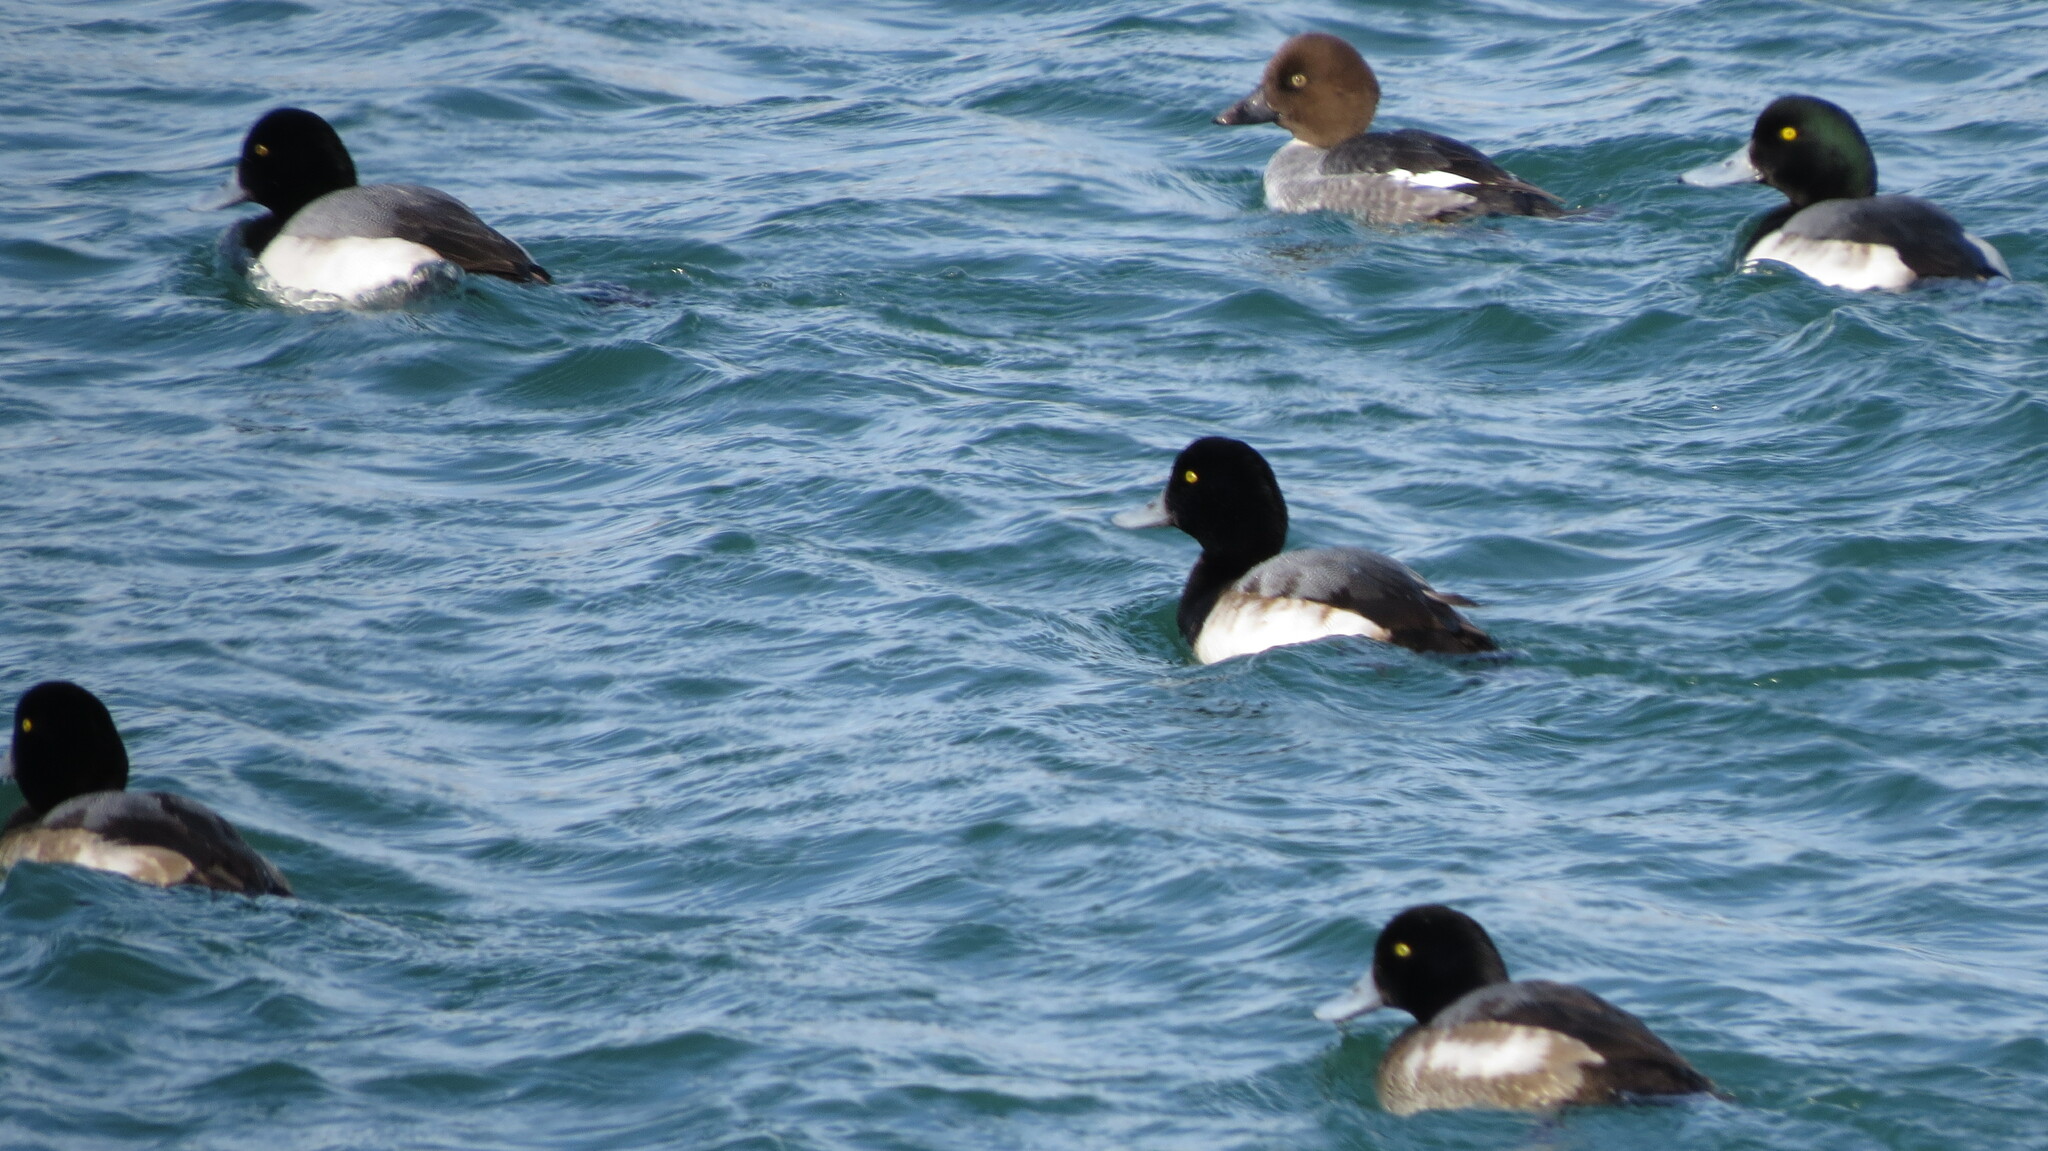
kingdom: Animalia
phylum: Chordata
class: Aves
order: Anseriformes
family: Anatidae
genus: Aythya
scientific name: Aythya marila
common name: Greater scaup
